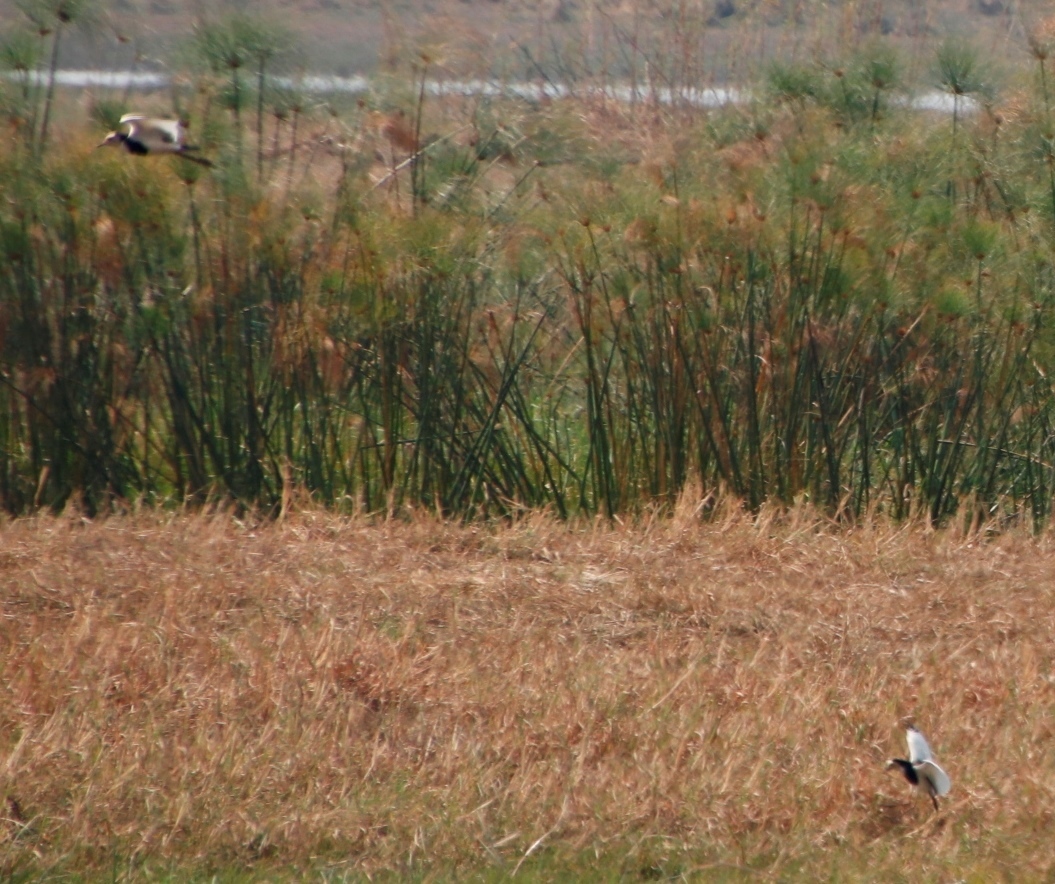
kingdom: Animalia
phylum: Chordata
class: Aves
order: Charadriiformes
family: Charadriidae
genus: Vanellus
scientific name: Vanellus crassirostris
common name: Long-toed lapwing
